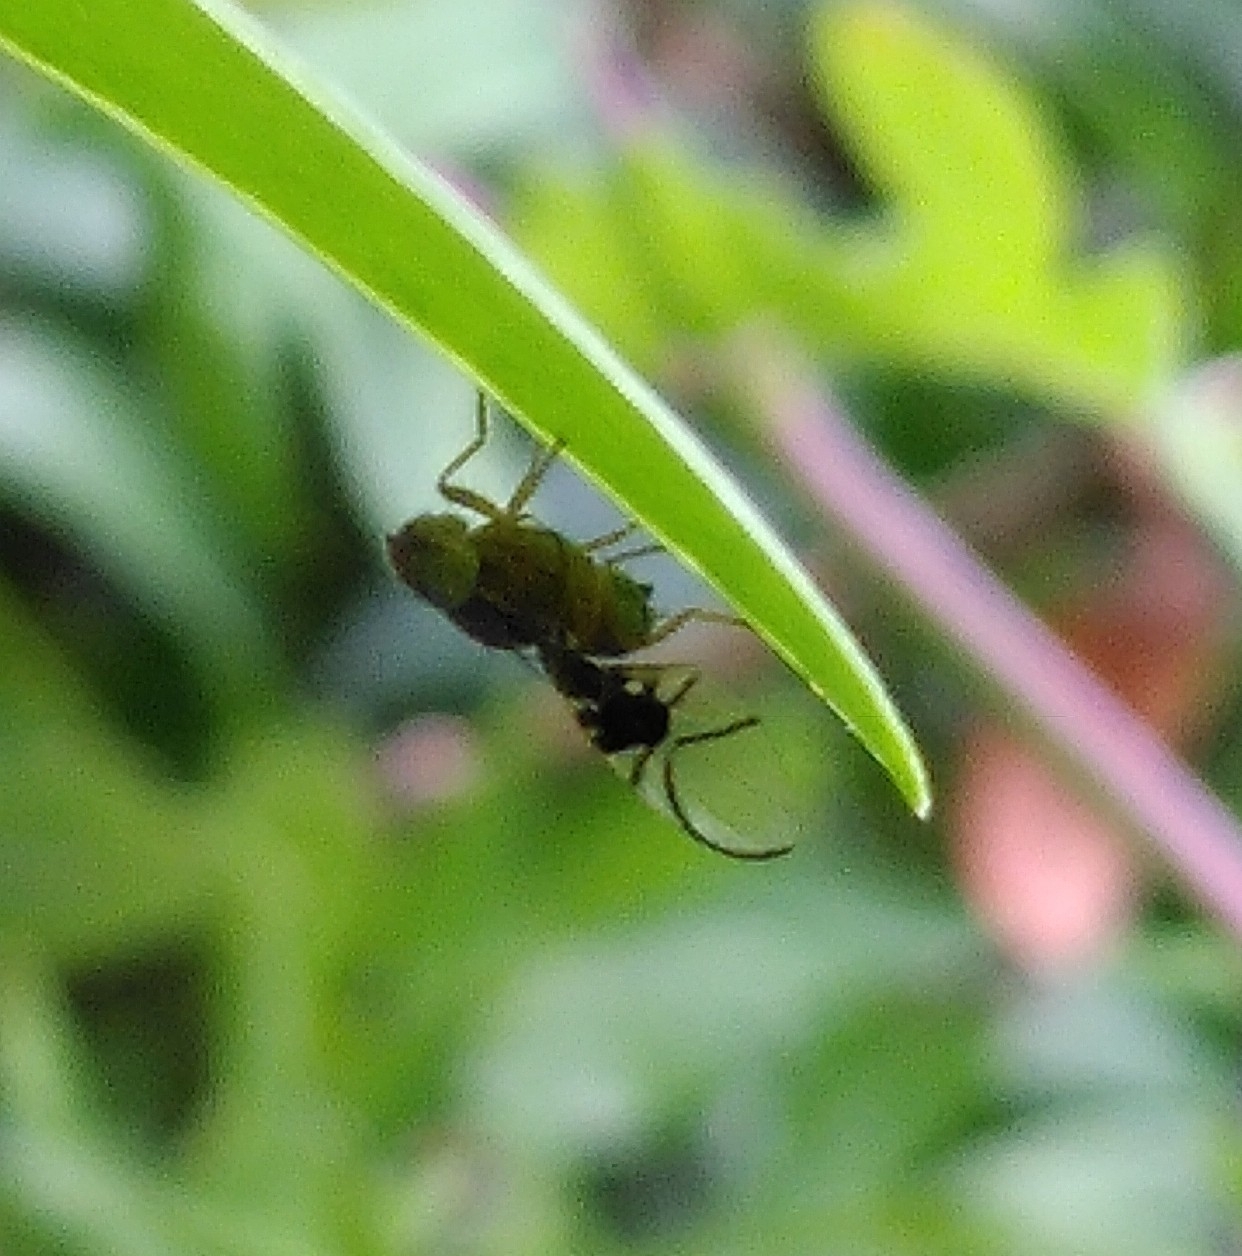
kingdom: Animalia
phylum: Arthropoda
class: Insecta
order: Diptera
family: Tephritidae
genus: Anomoia
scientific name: Anomoia purmunda
